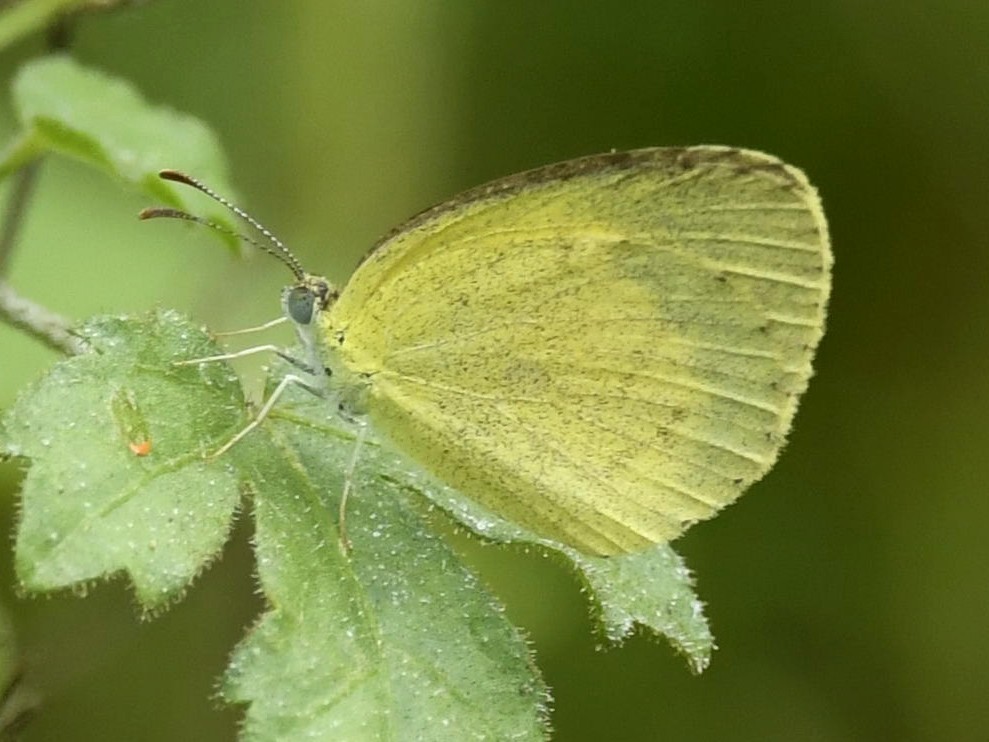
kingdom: Animalia
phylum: Arthropoda
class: Insecta
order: Lepidoptera
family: Pieridae
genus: Eurema
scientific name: Eurema hecabe
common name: Pale grass yellow
